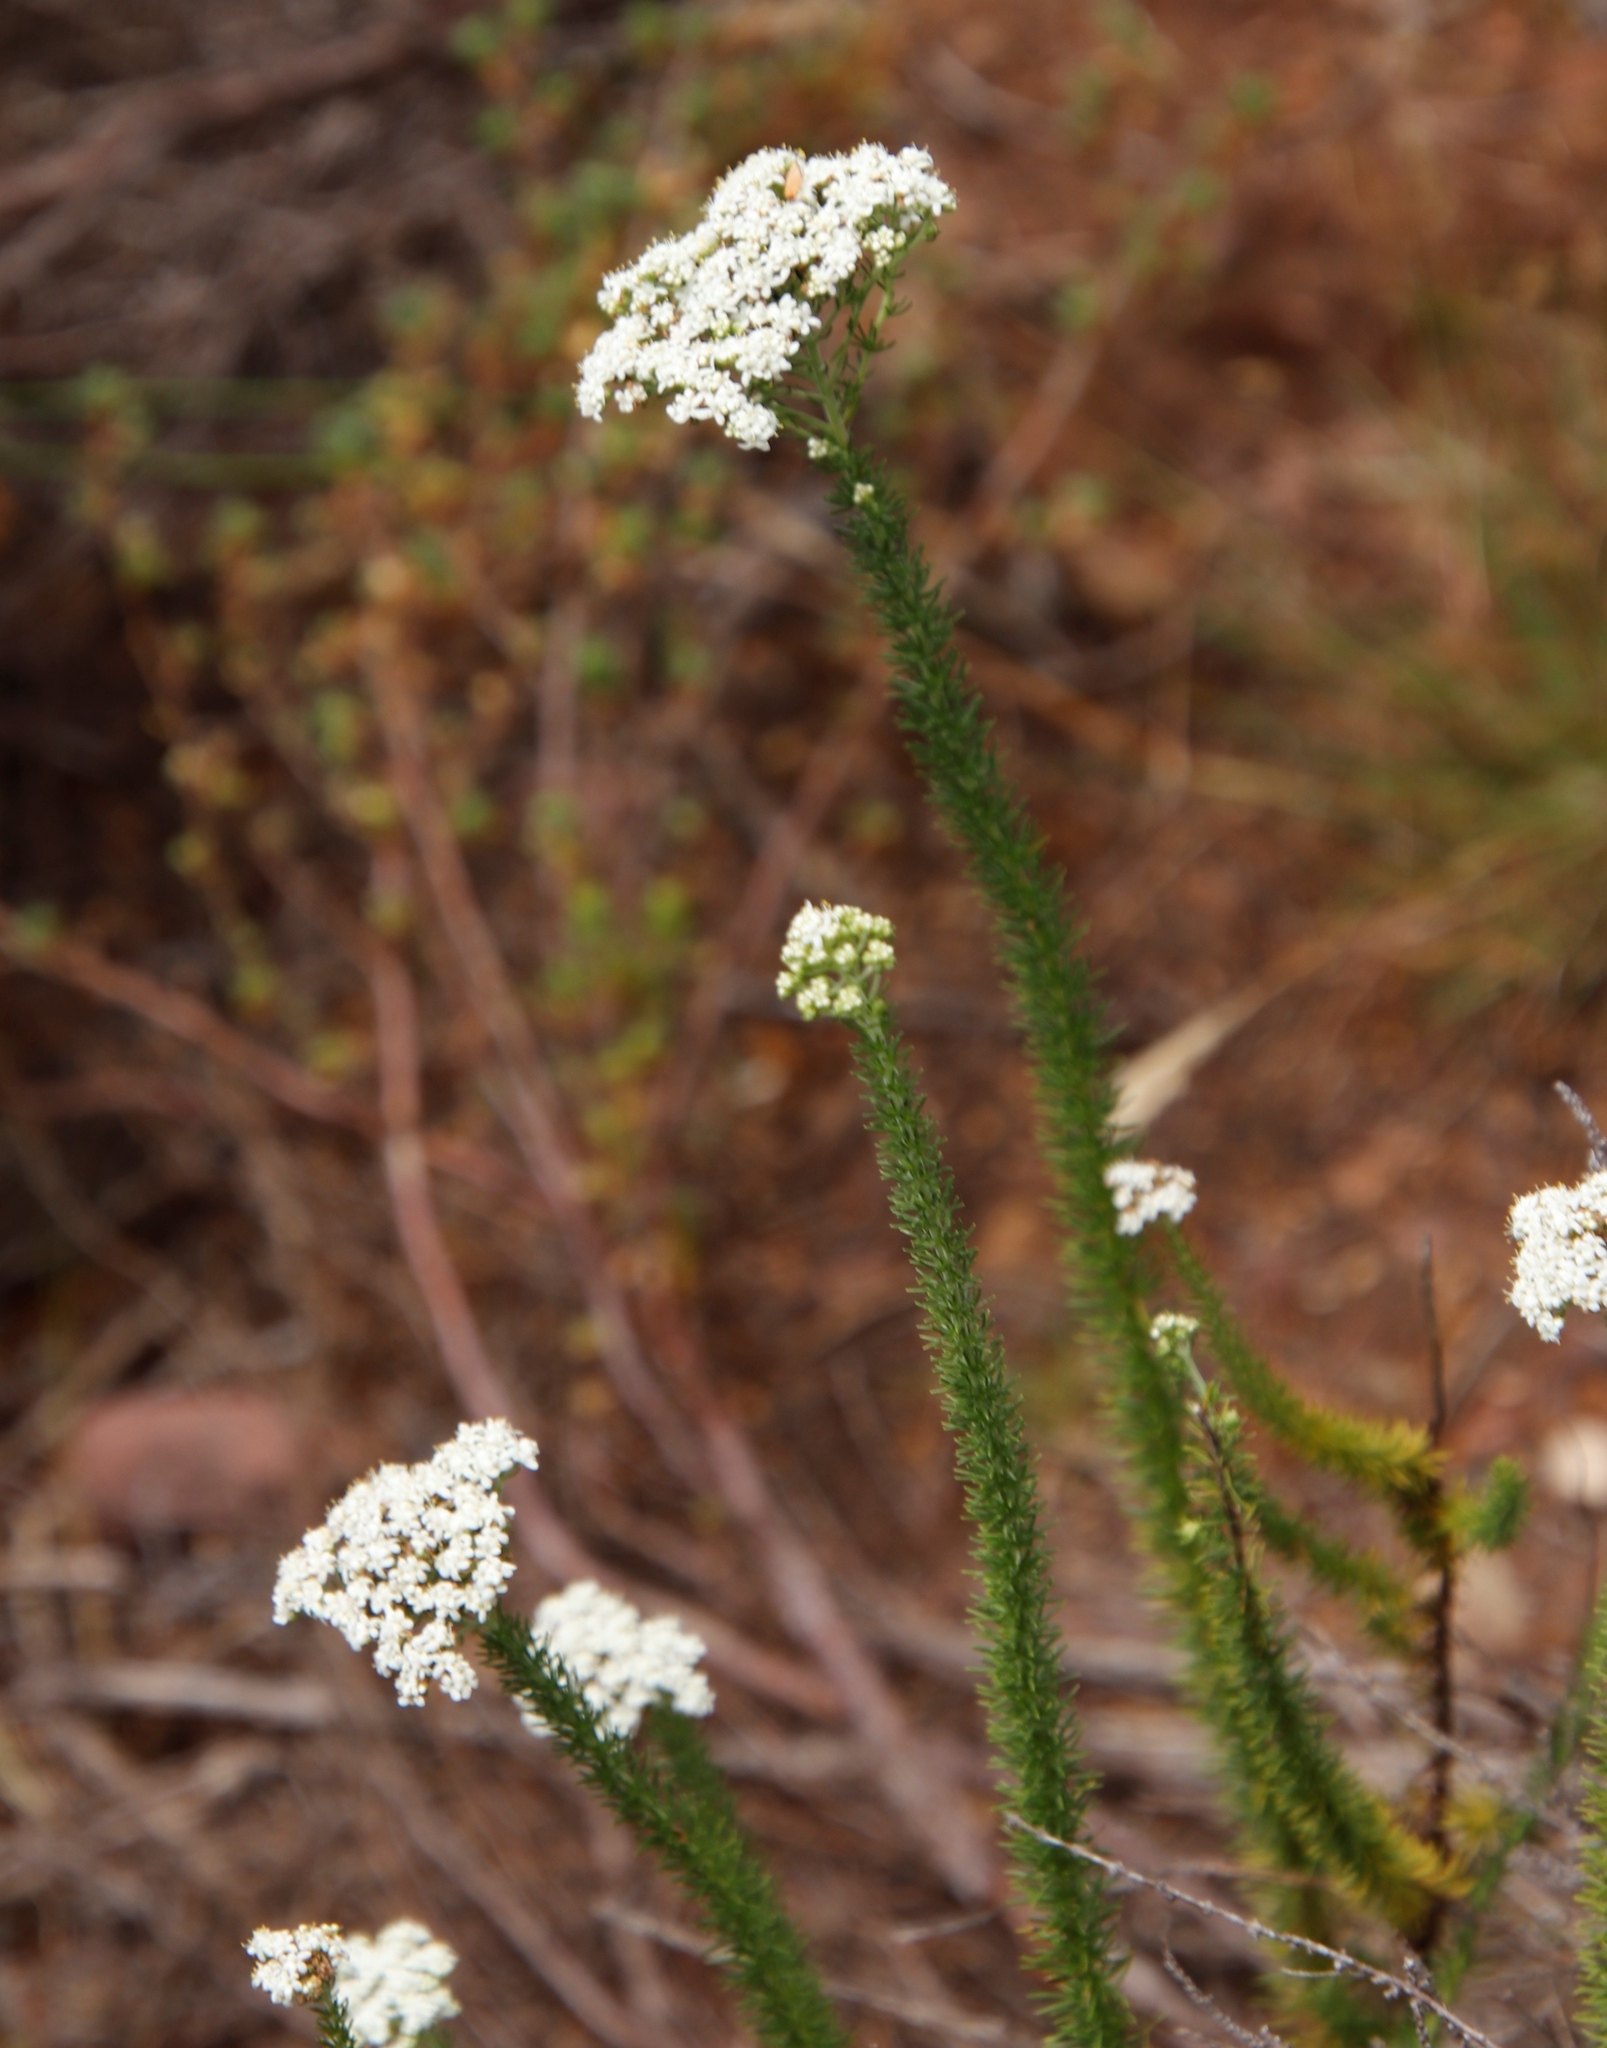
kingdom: Plantae
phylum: Tracheophyta
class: Magnoliopsida
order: Lamiales
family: Scrophulariaceae
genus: Selago
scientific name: Selago corymbosa
